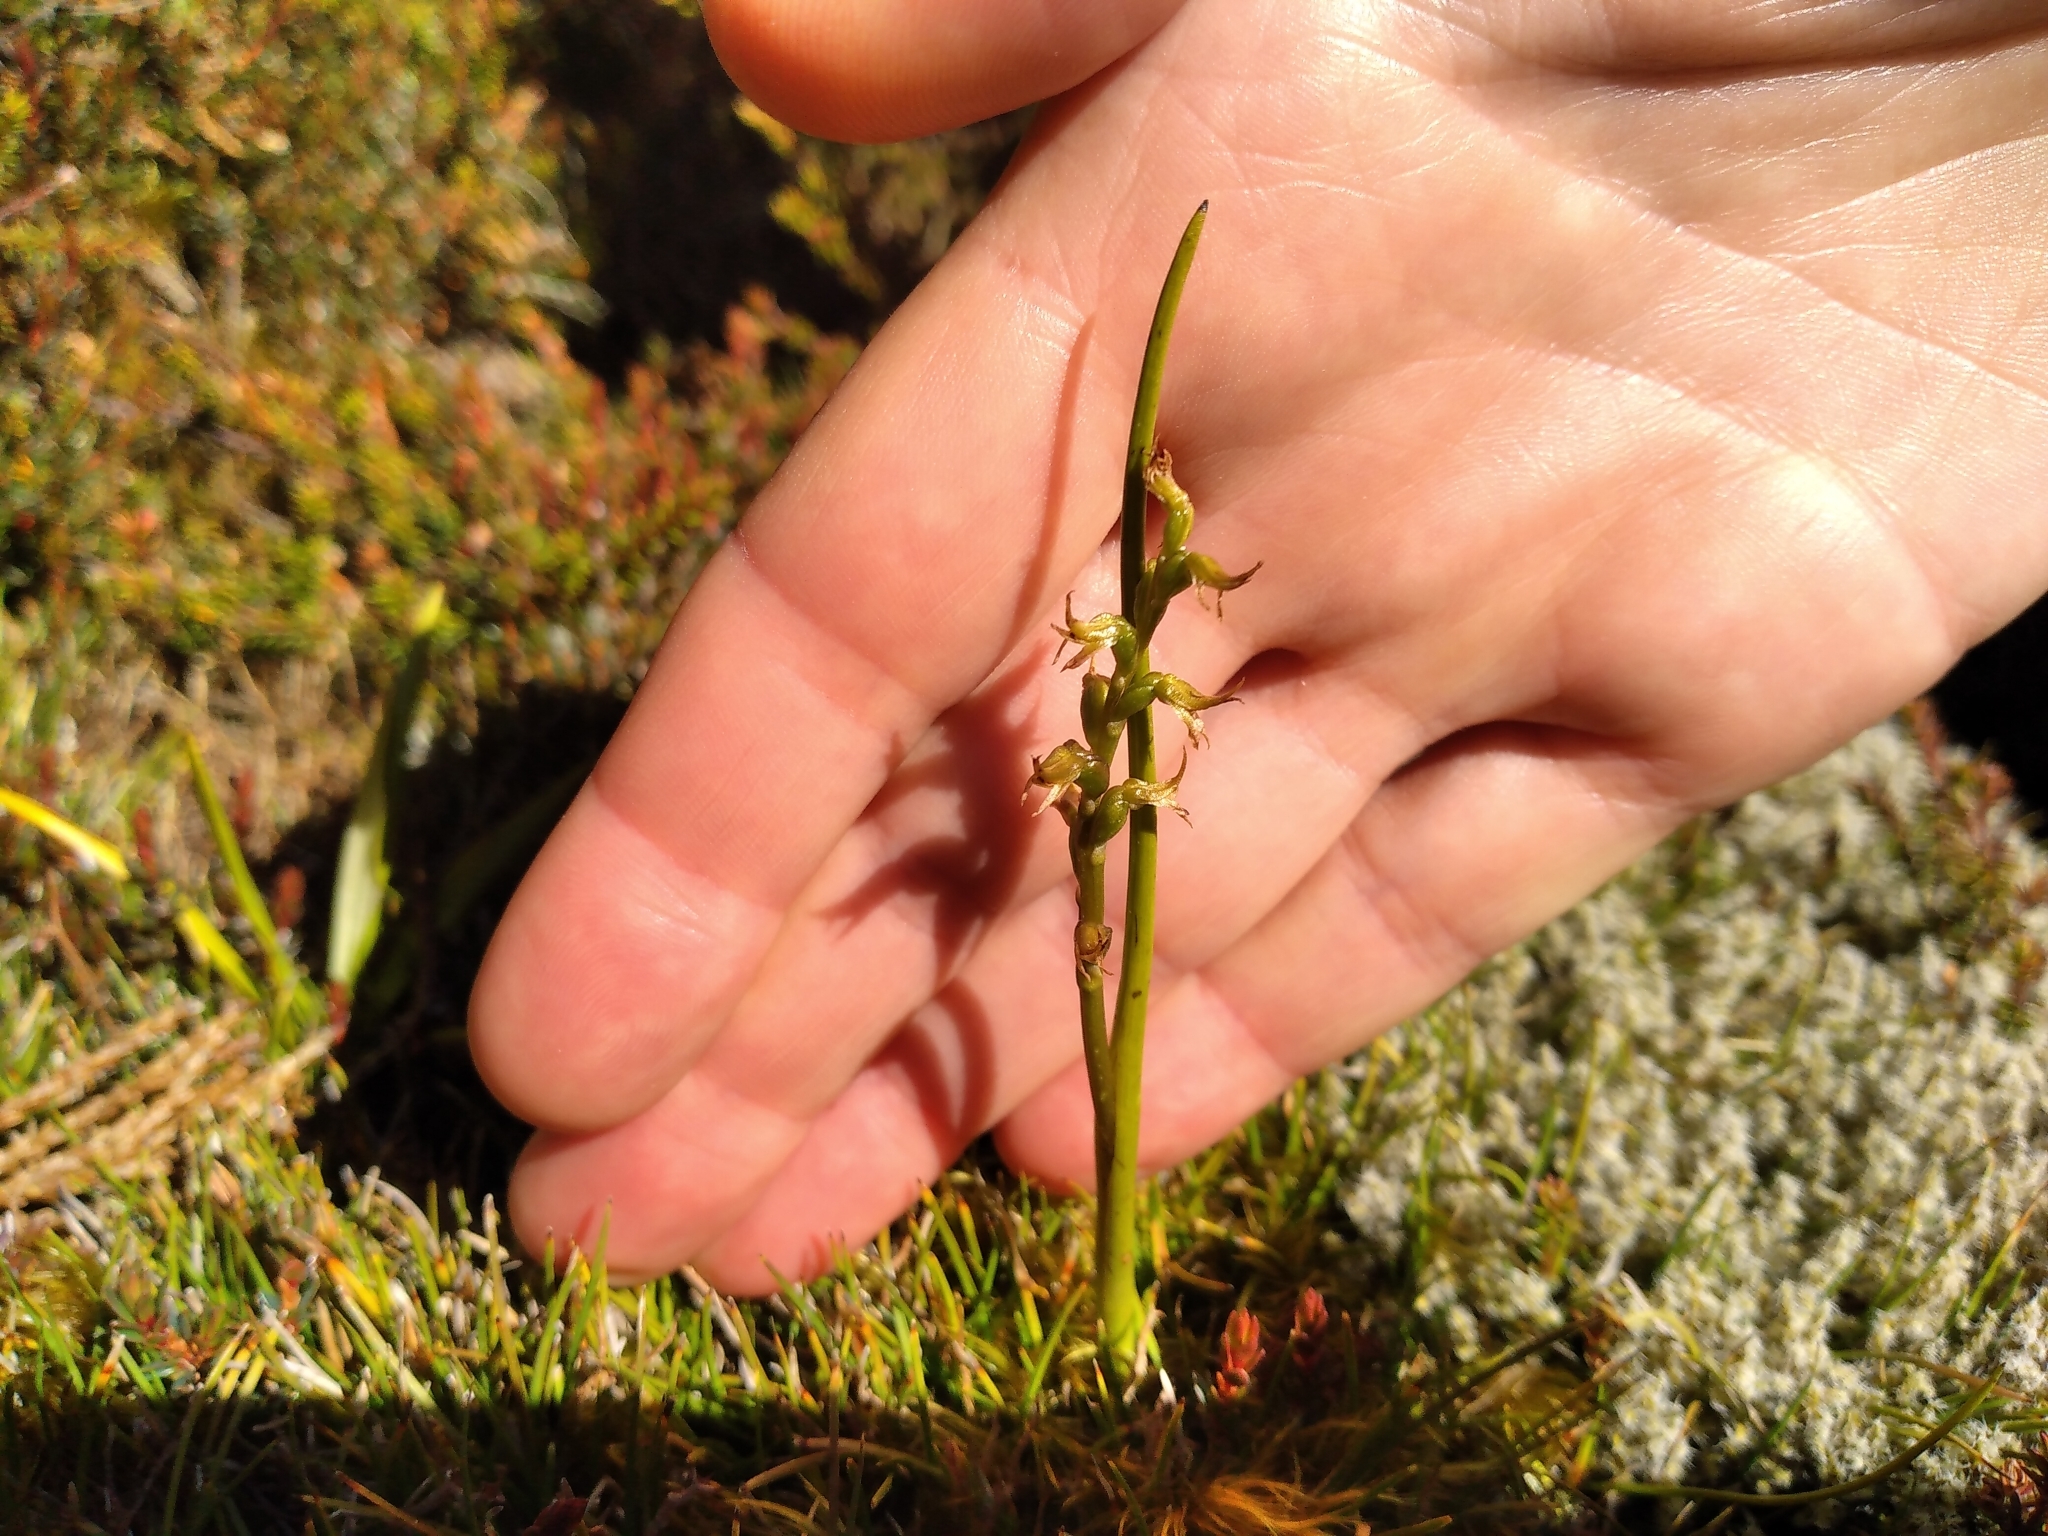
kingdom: Plantae
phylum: Tracheophyta
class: Liliopsida
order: Asparagales
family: Orchidaceae
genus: Prasophyllum
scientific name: Prasophyllum colensoi
